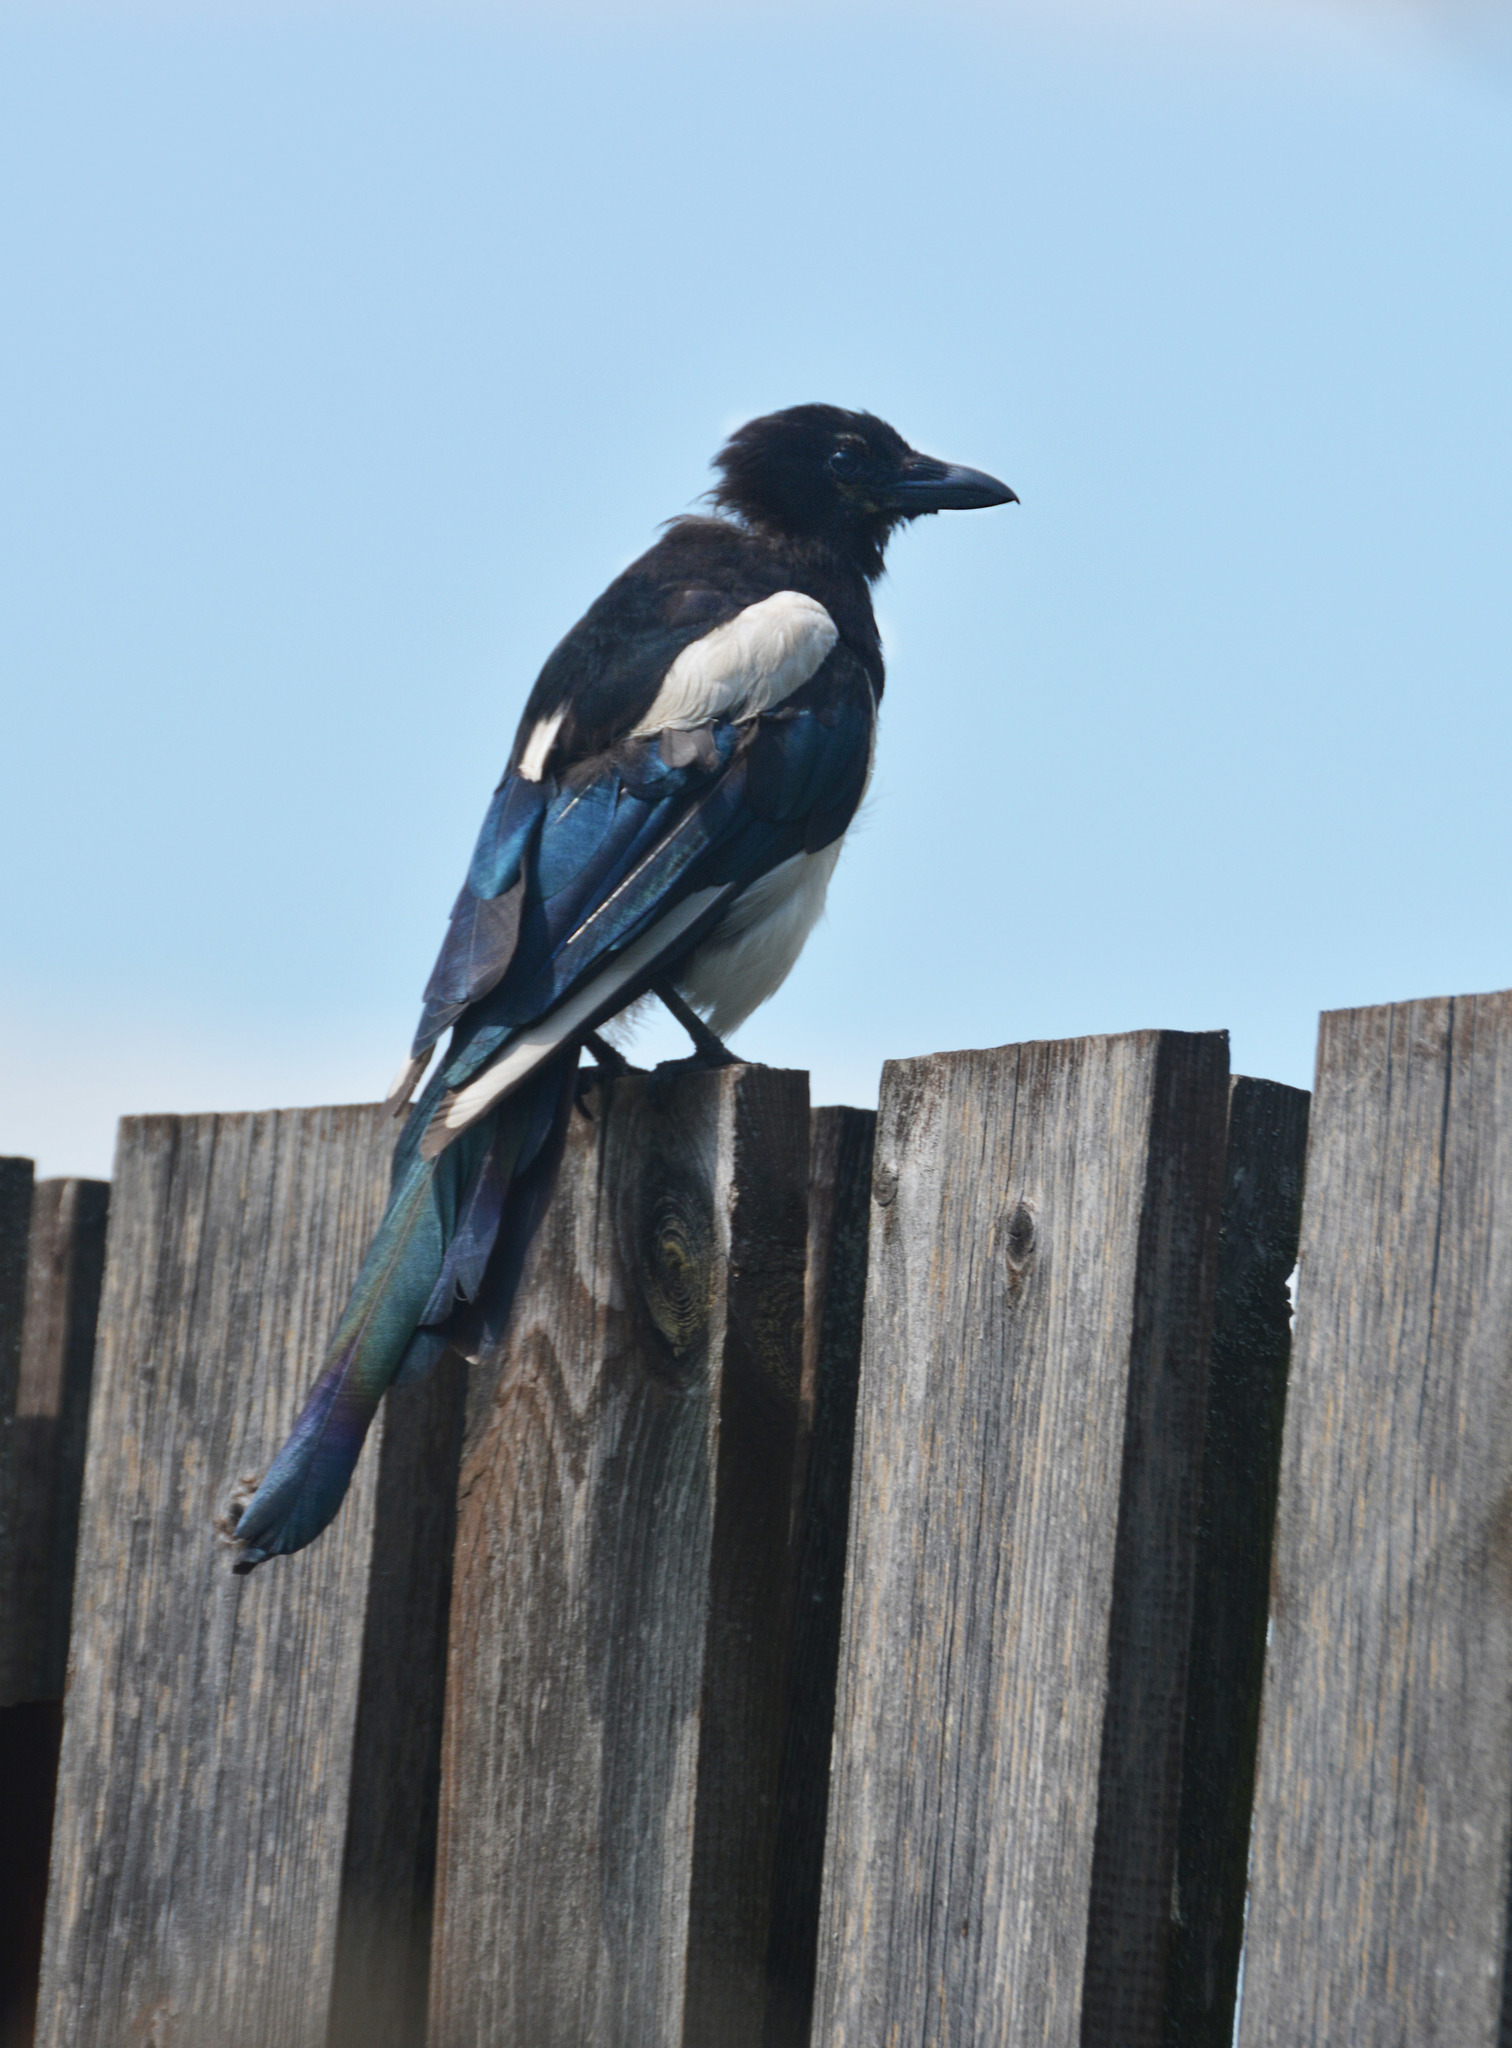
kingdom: Animalia
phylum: Chordata
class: Aves
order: Passeriformes
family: Corvidae
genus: Pica
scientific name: Pica pica
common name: Eurasian magpie
